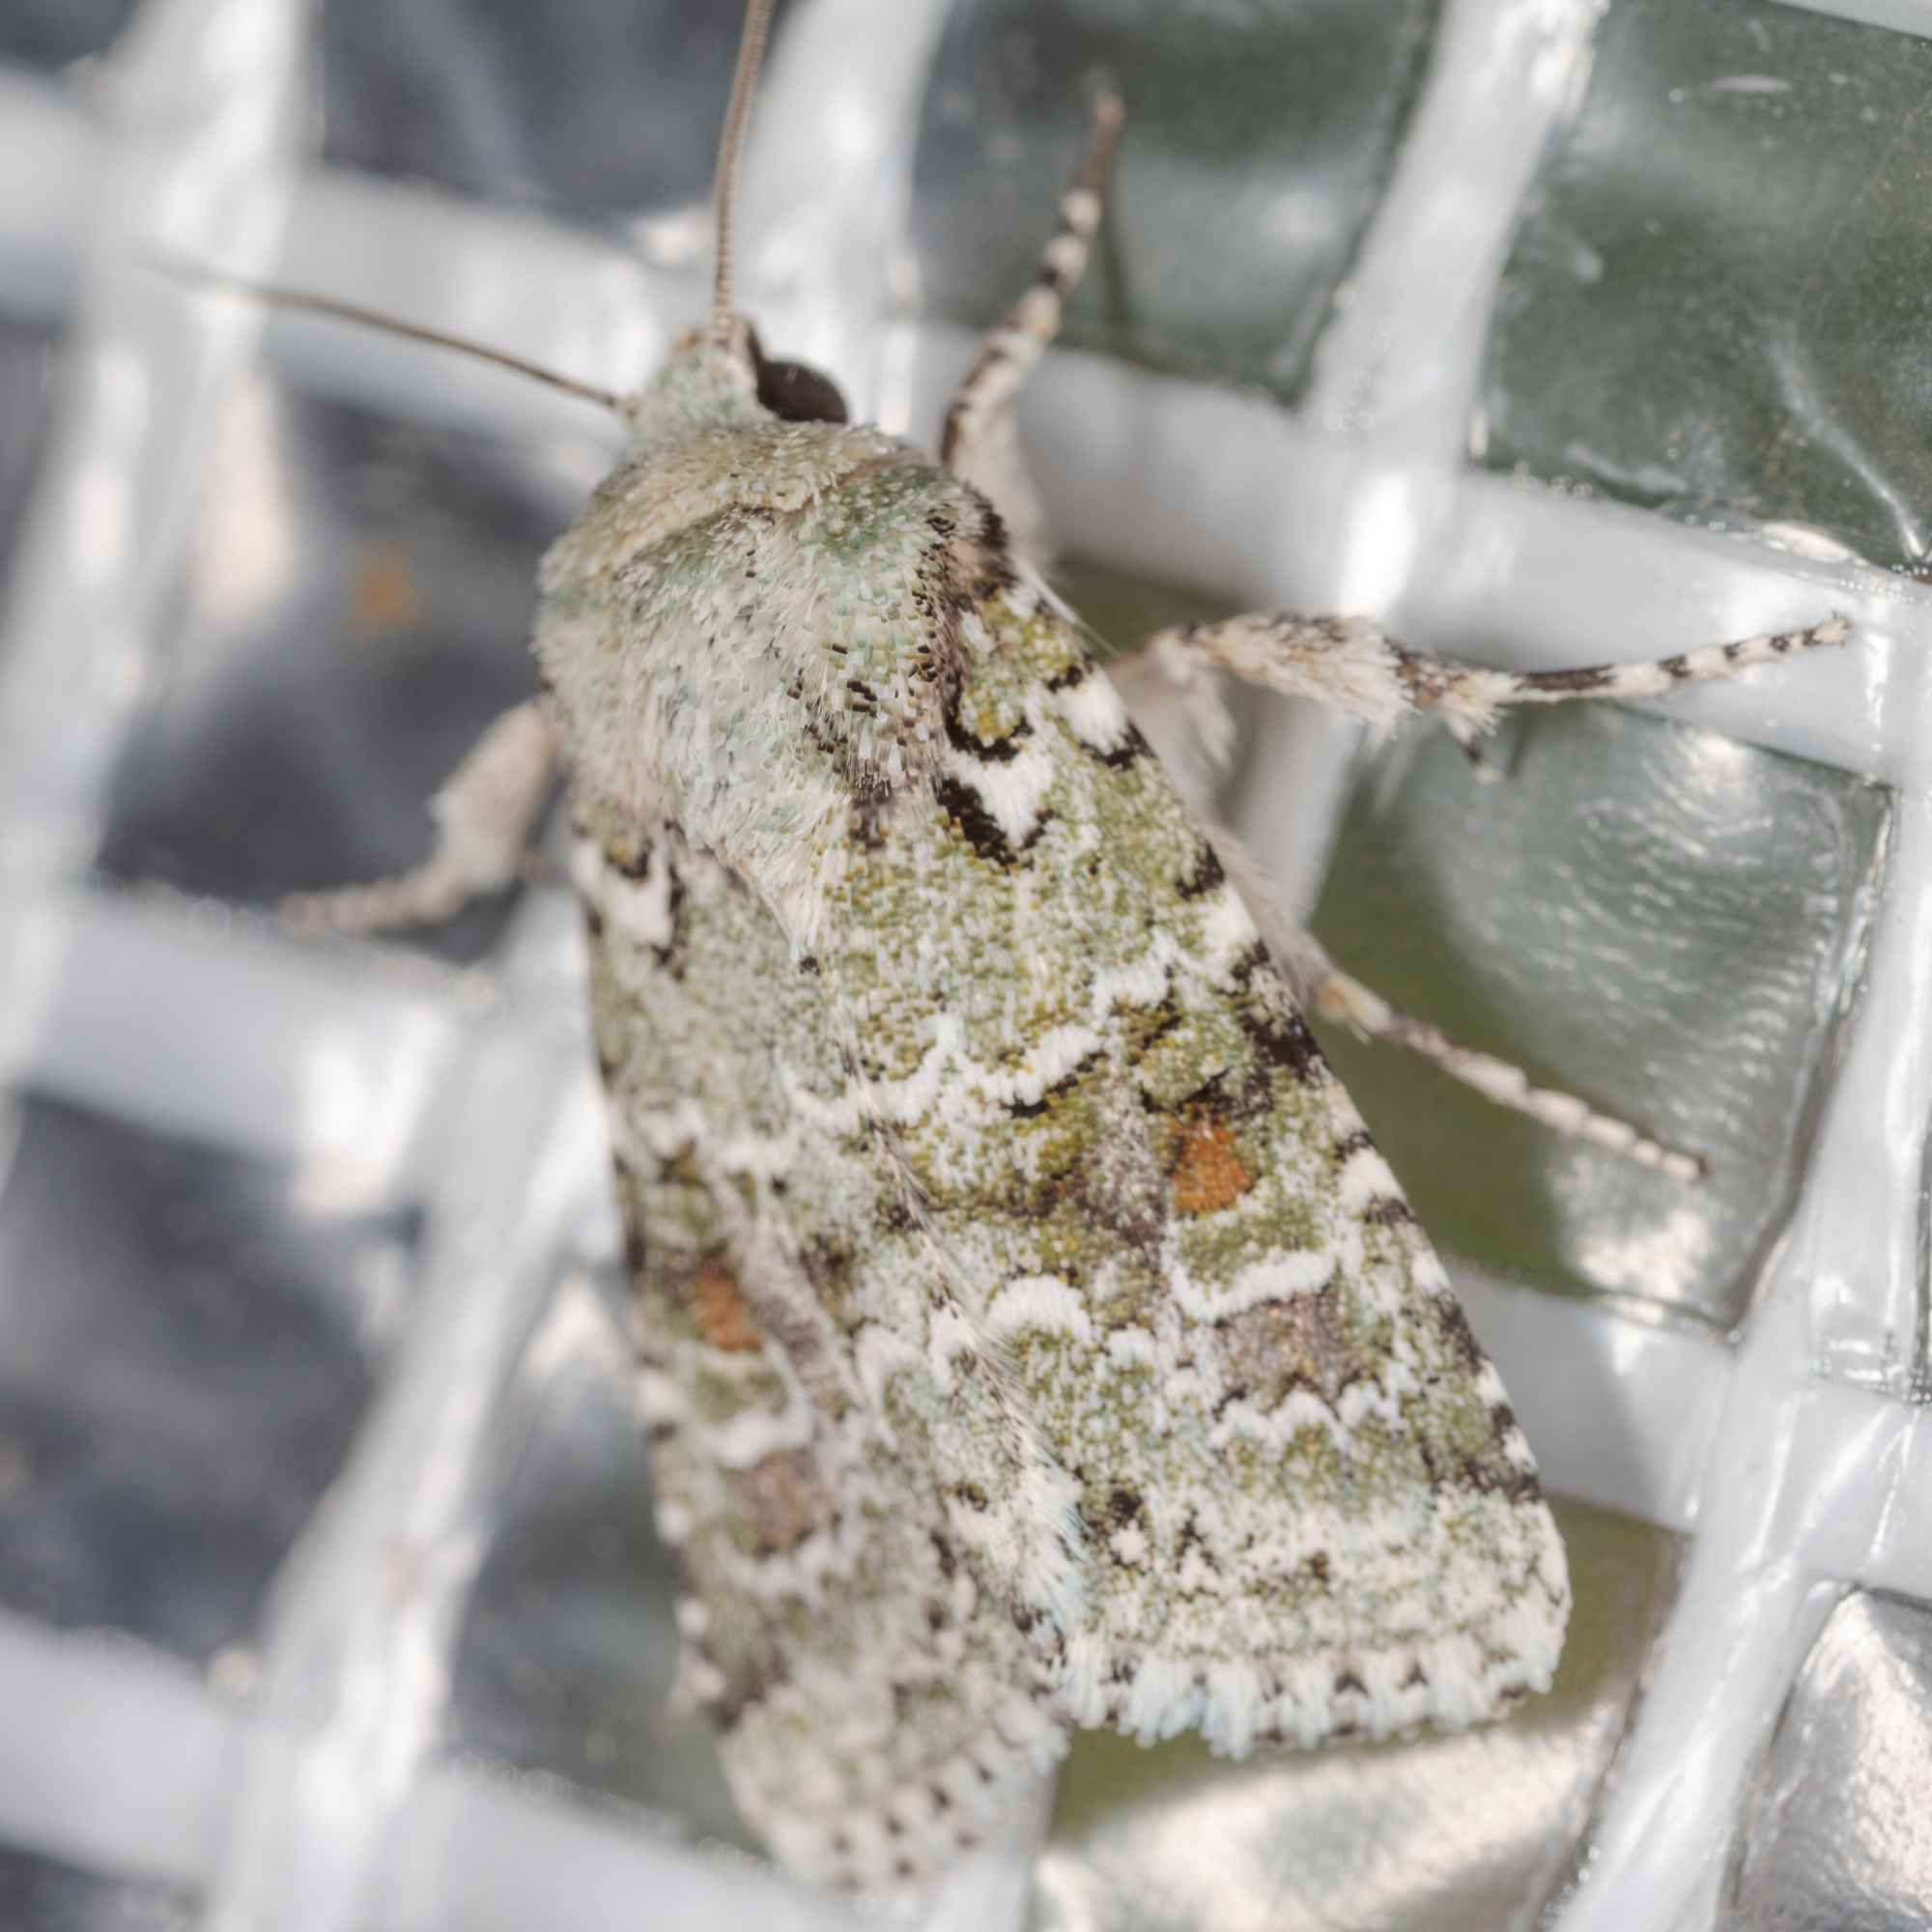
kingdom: Animalia
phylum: Arthropoda
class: Insecta
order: Lepidoptera
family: Noctuidae
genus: Lacinipolia
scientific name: Lacinipolia laudabilis
